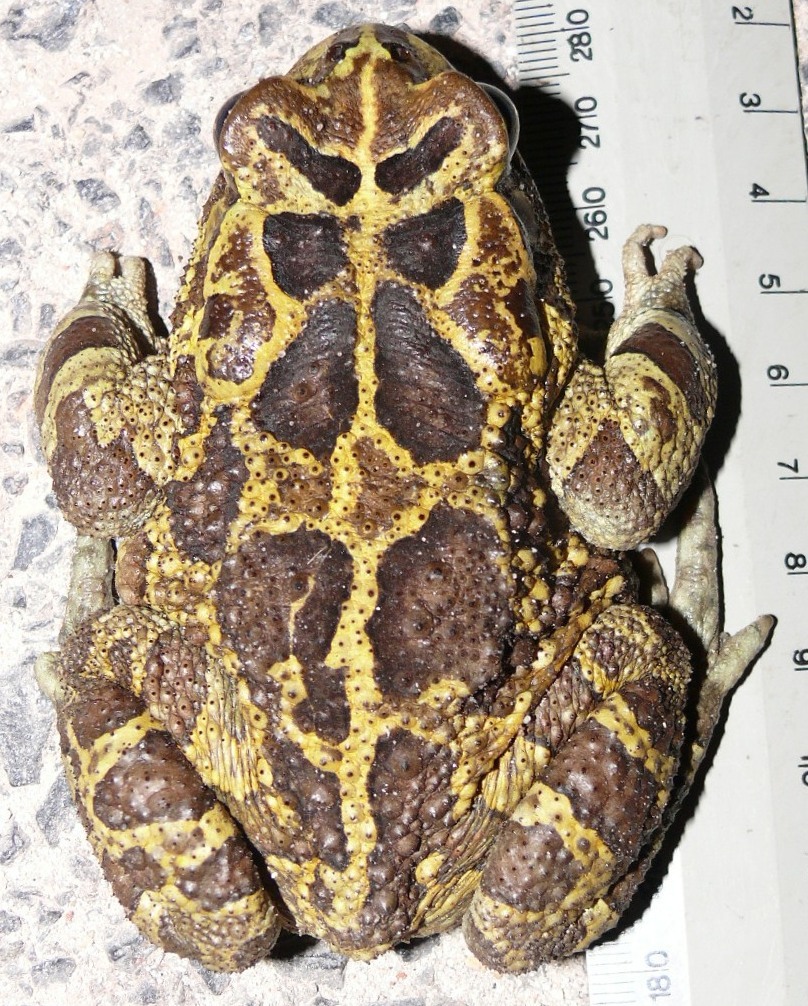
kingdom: Animalia
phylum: Chordata
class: Amphibia
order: Anura
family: Bufonidae
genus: Sclerophrys
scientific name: Sclerophrys pantherina
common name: Panther toad
